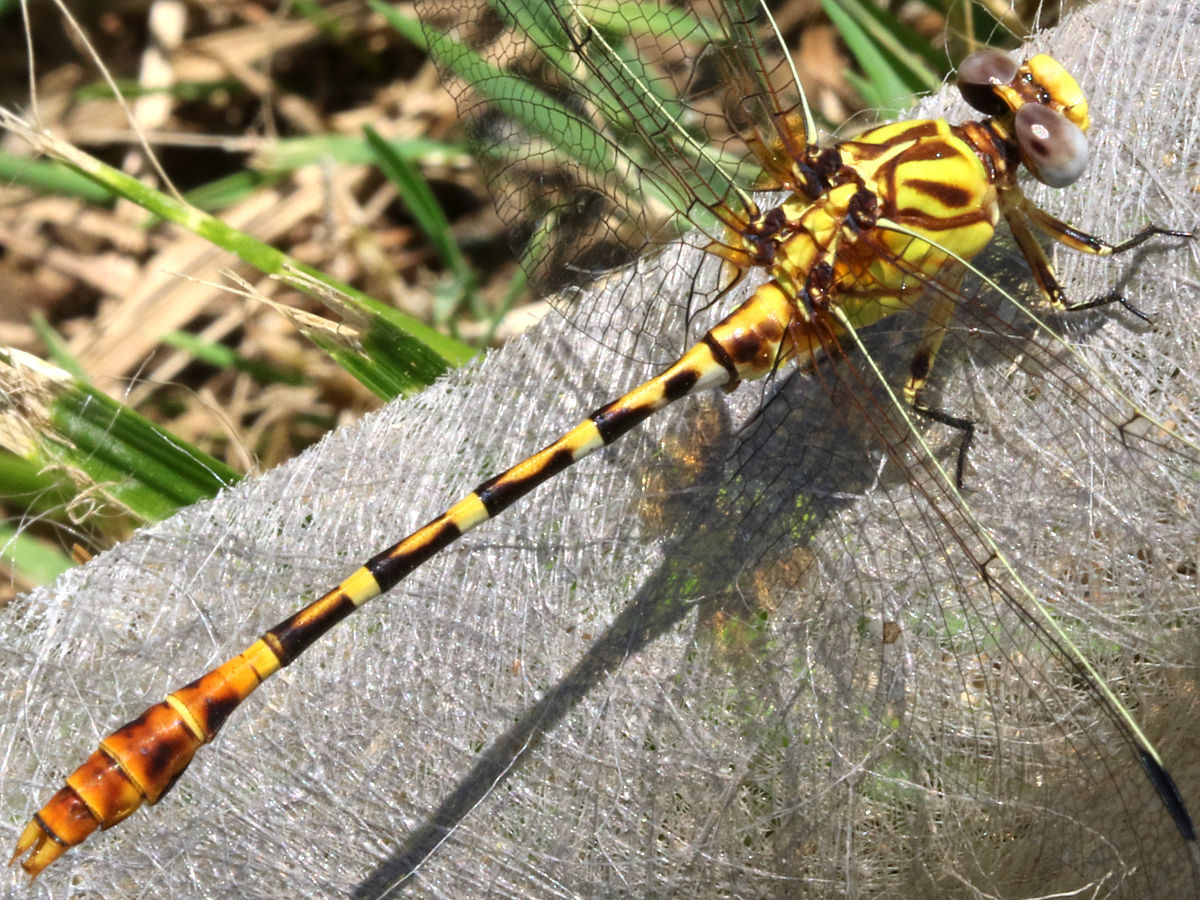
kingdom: Animalia
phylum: Arthropoda
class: Insecta
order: Odonata
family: Gomphidae
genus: Erpetogomphus
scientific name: Erpetogomphus designatus
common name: Eastern ringtail
